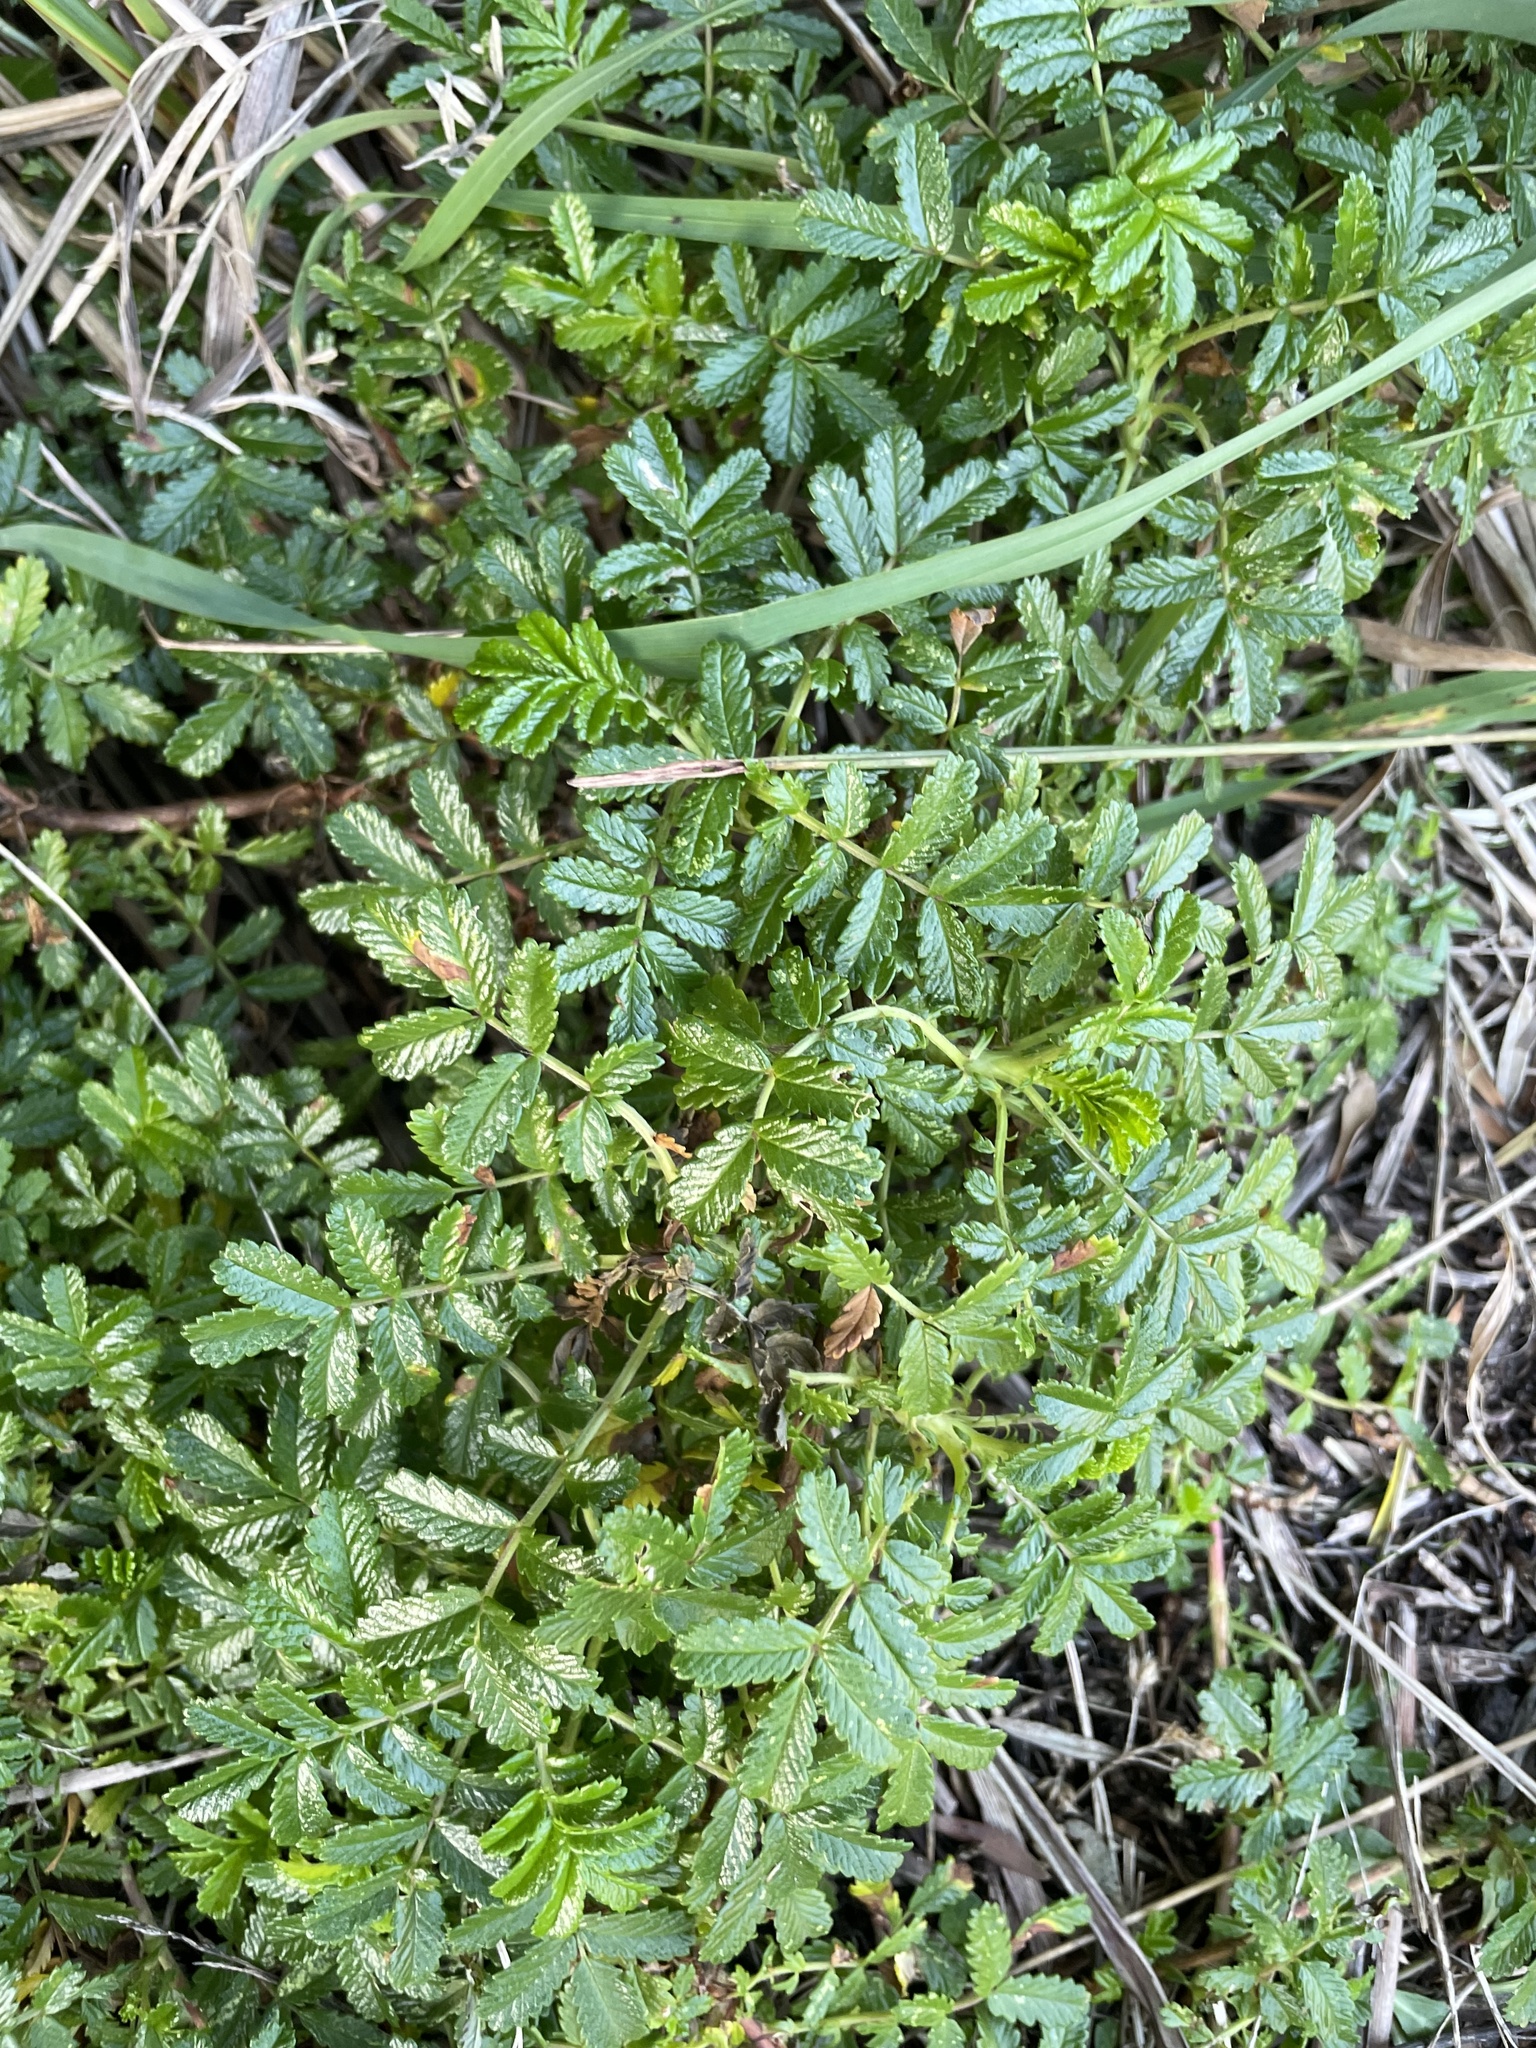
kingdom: Plantae
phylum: Tracheophyta
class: Magnoliopsida
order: Rosales
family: Rosaceae
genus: Acaena
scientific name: Acaena novae-zelandiae
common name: Pirri-pirri-bur
